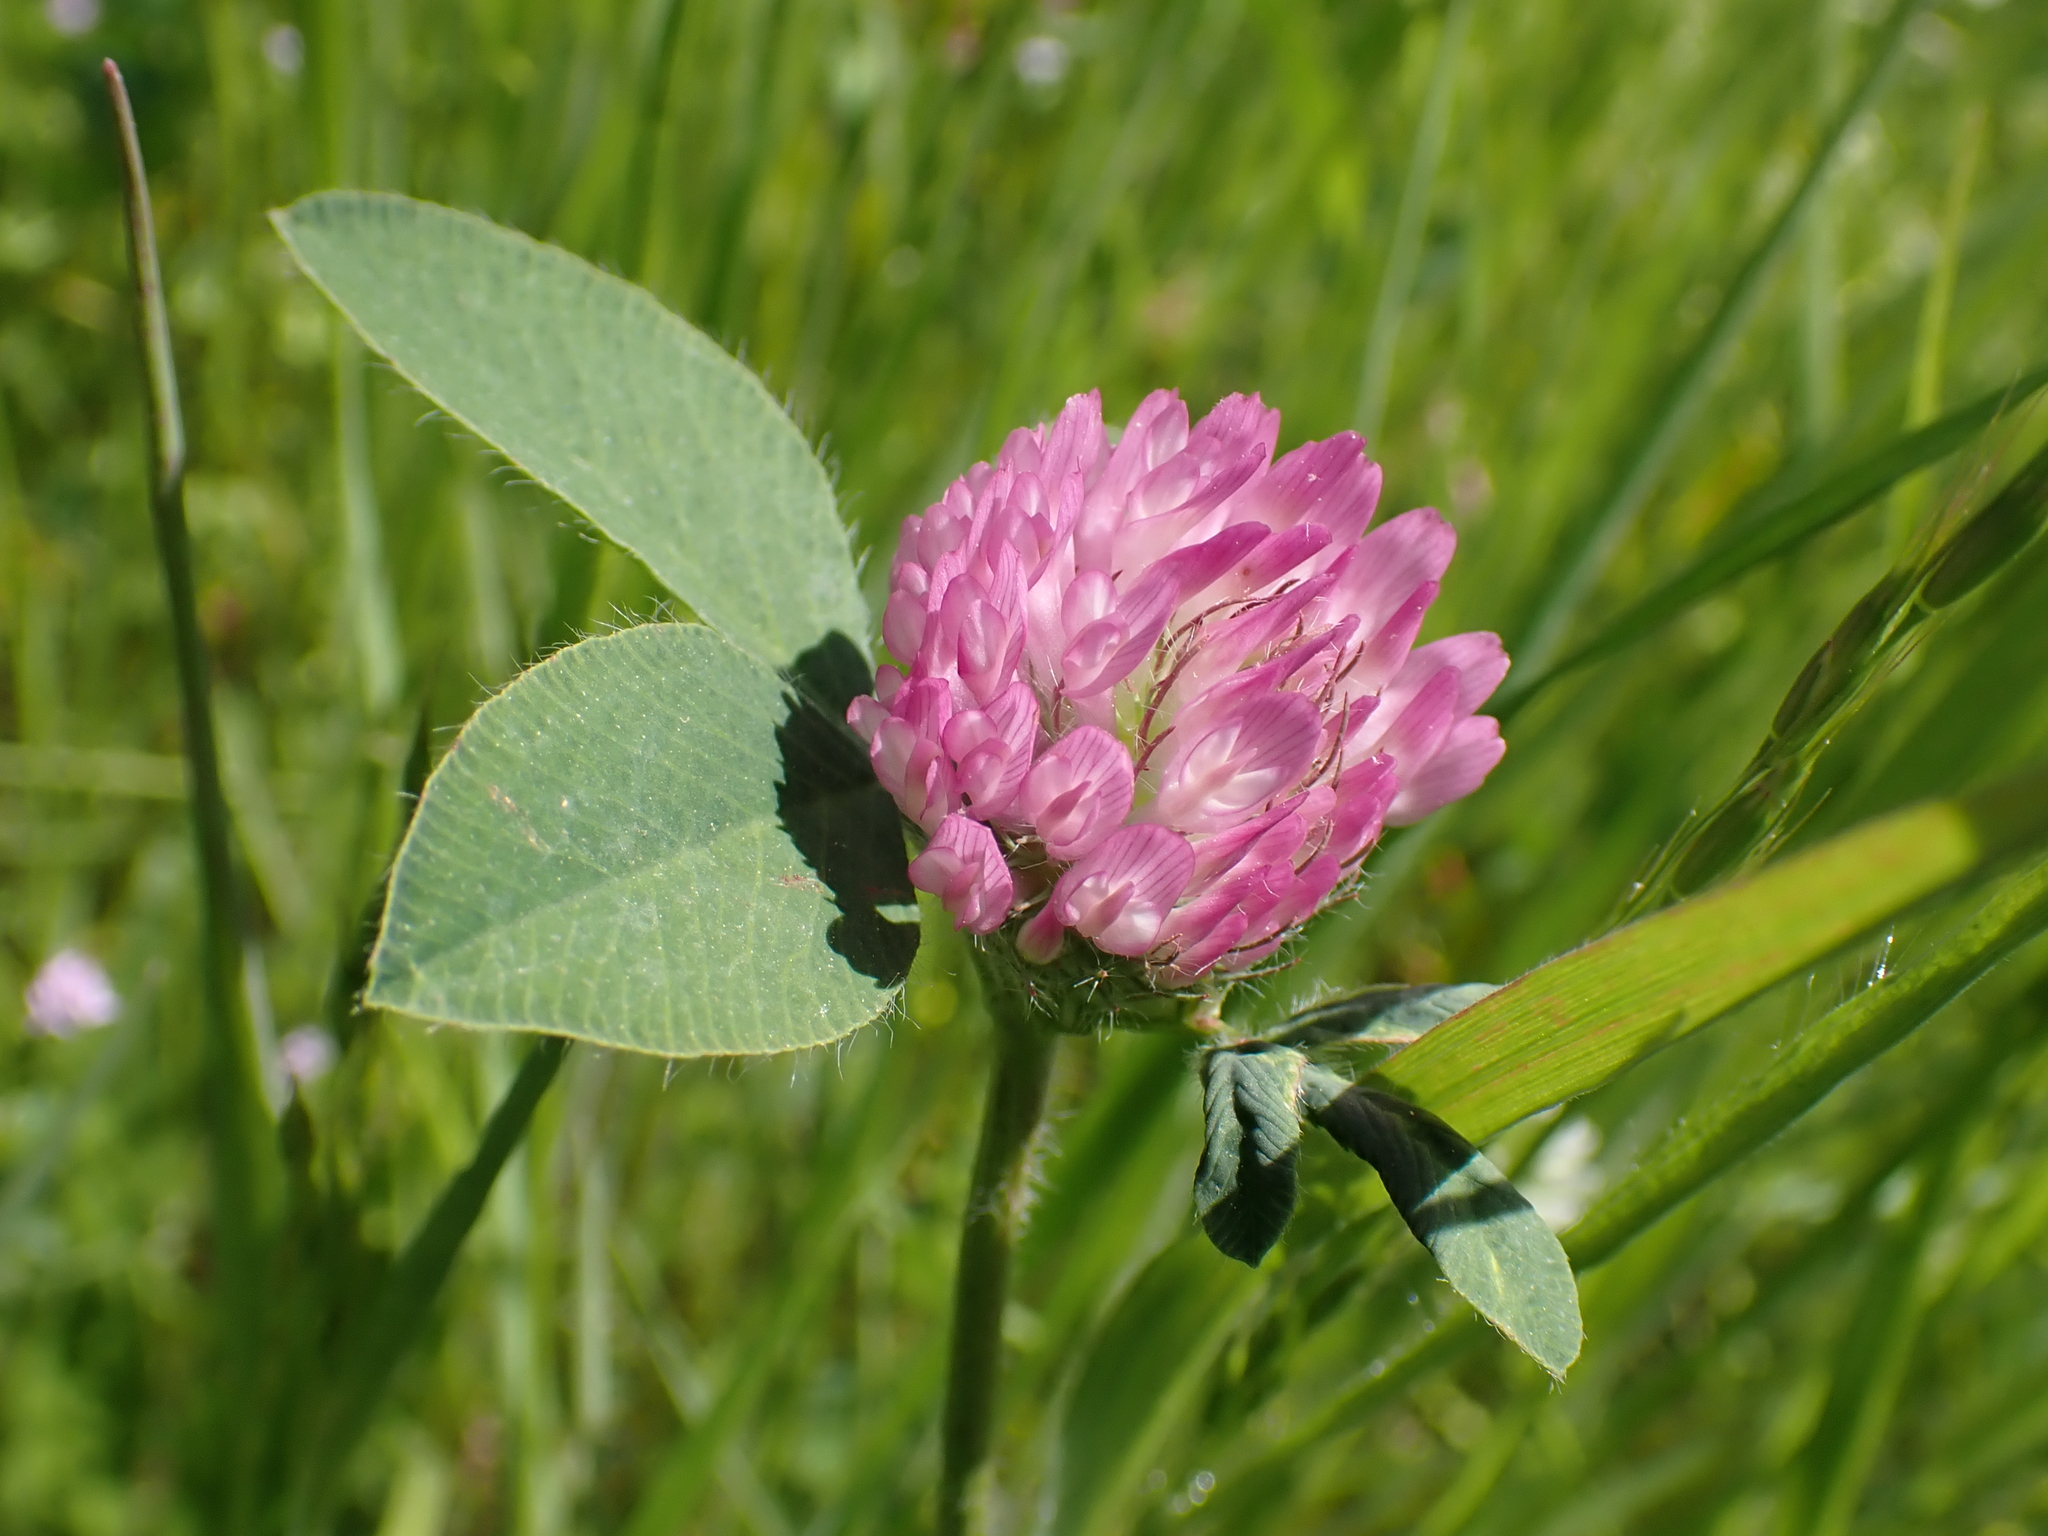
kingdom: Plantae
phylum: Tracheophyta
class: Magnoliopsida
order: Fabales
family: Fabaceae
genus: Trifolium
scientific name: Trifolium pratense
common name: Red clover
